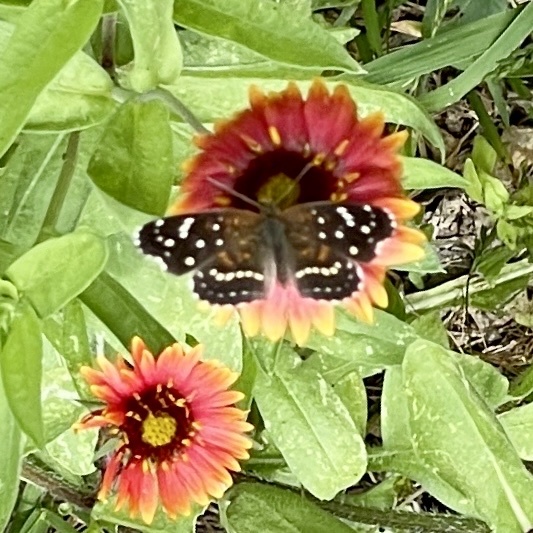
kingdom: Animalia
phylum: Arthropoda
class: Insecta
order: Lepidoptera
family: Nymphalidae
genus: Anthanassa
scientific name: Anthanassa texana
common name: Texan crescent
